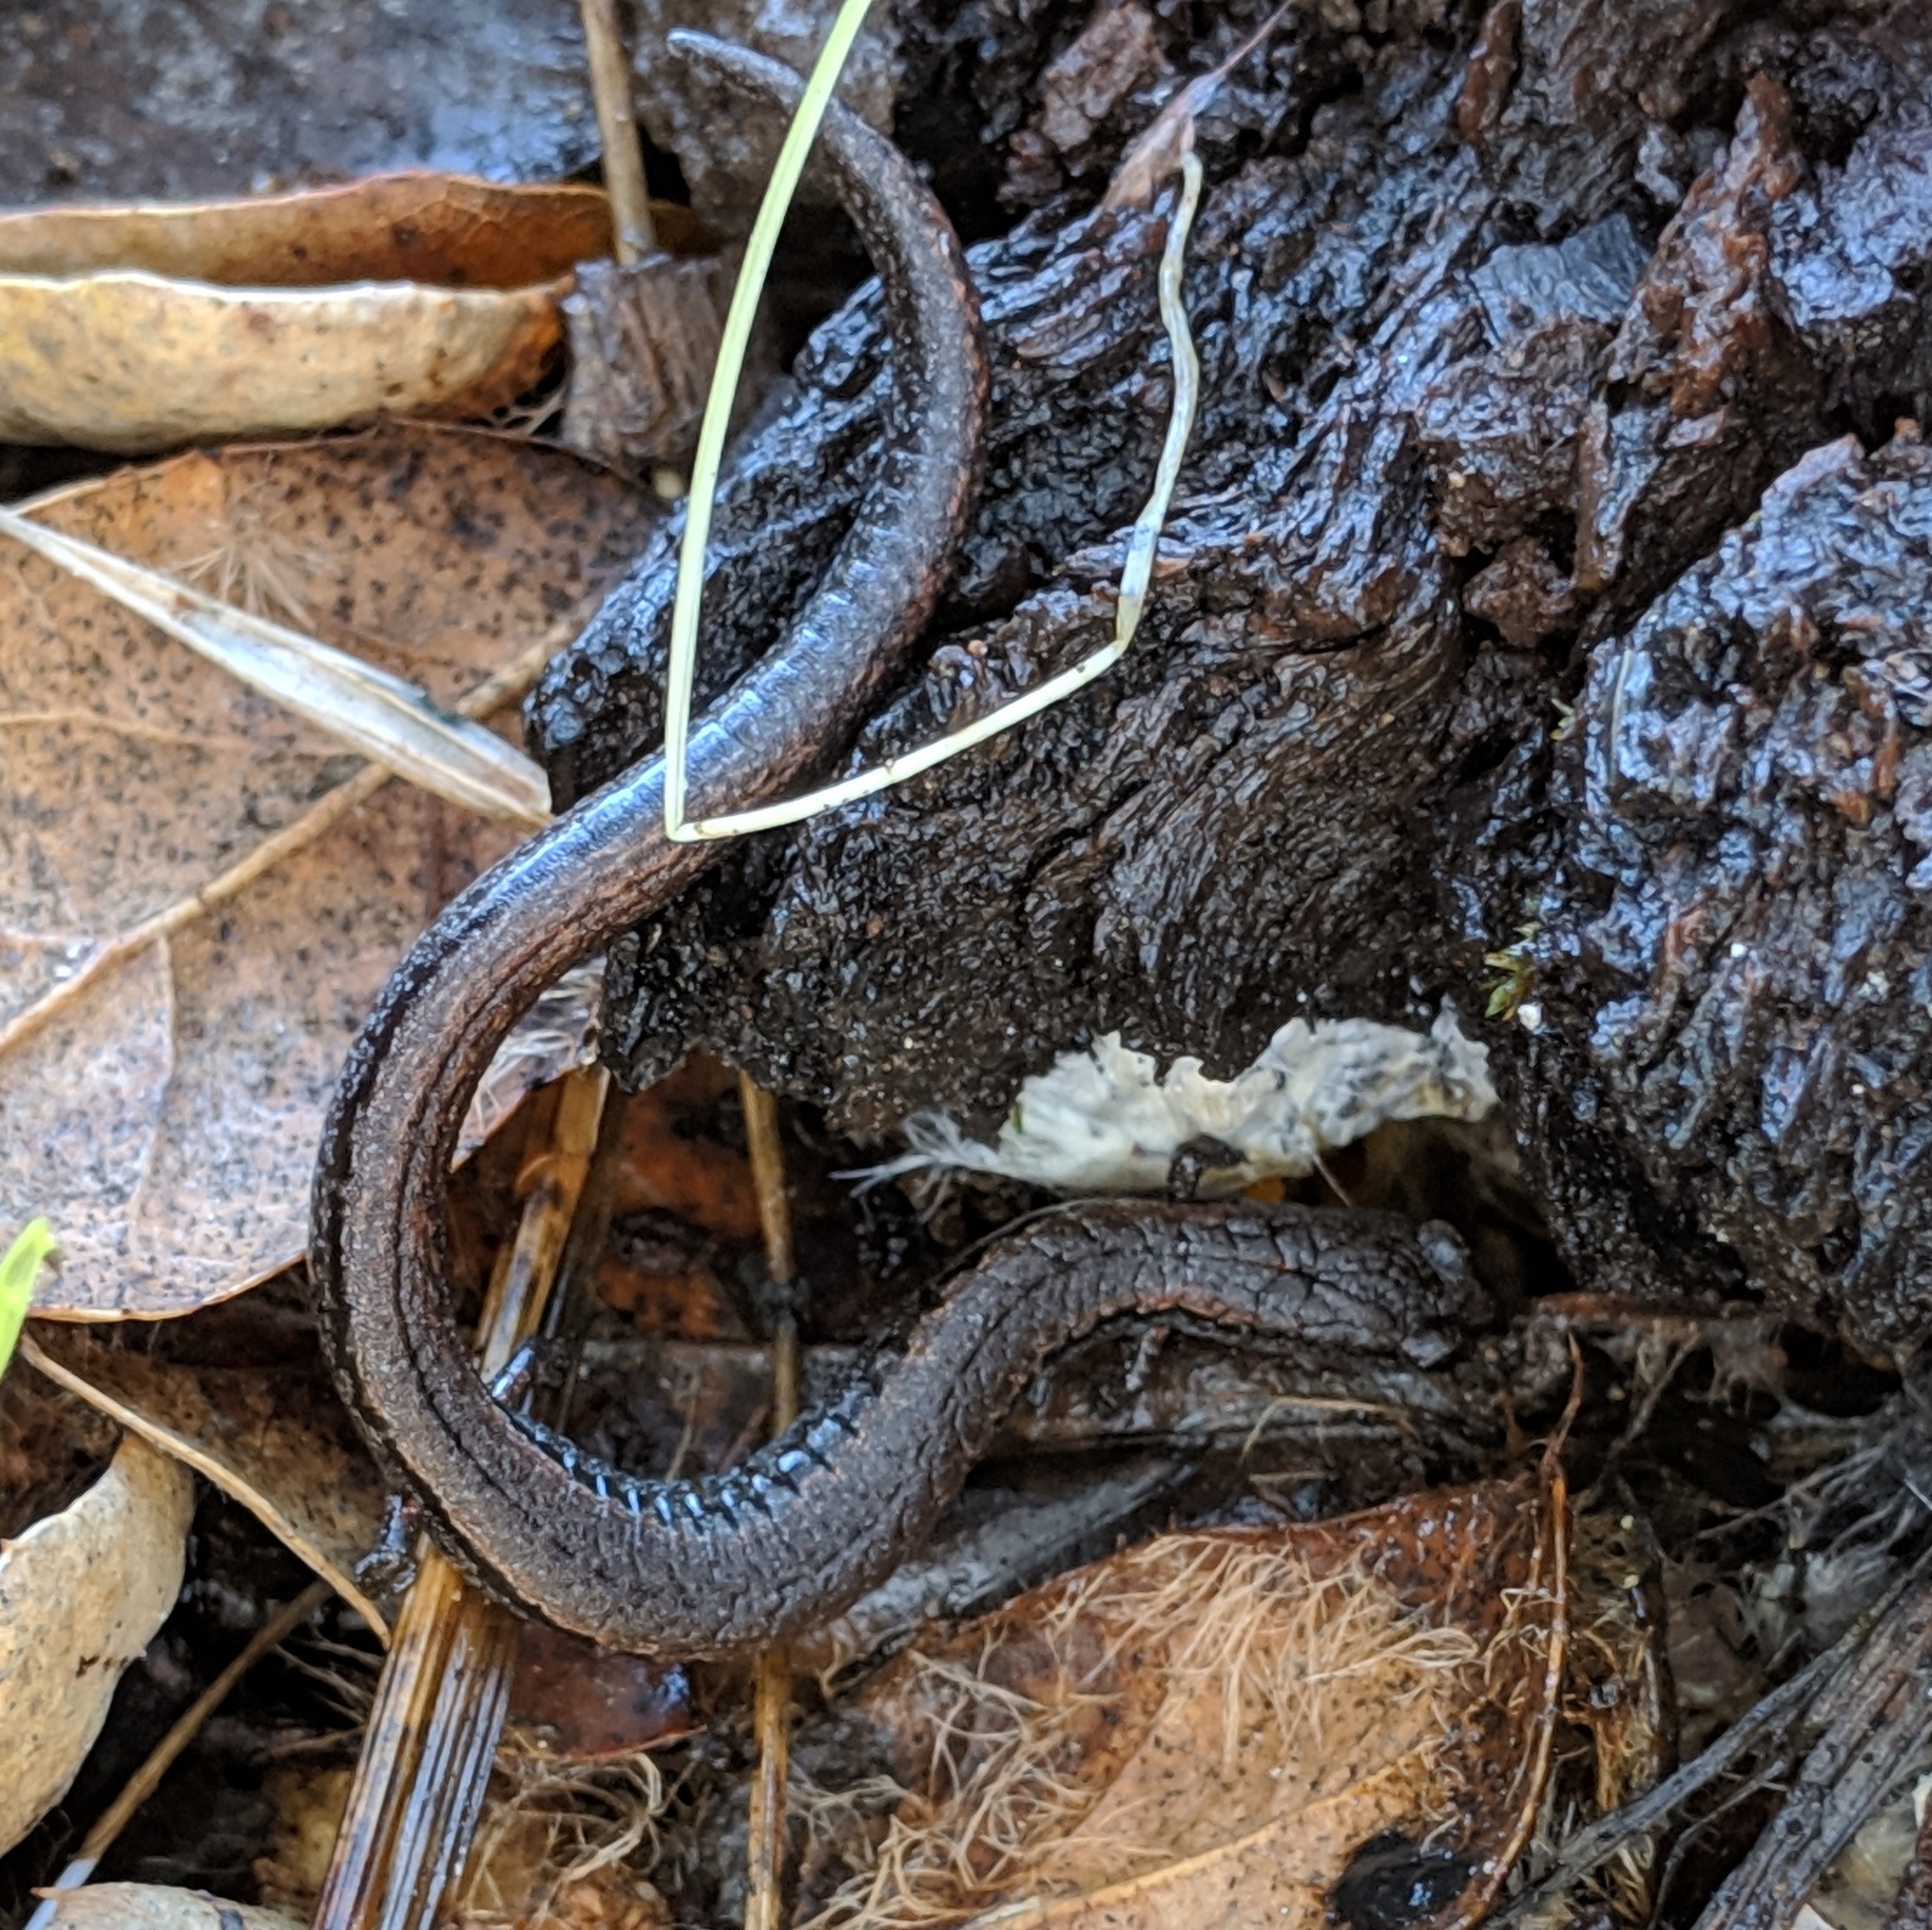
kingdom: Animalia
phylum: Chordata
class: Amphibia
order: Caudata
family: Plethodontidae
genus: Batrachoseps
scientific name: Batrachoseps attenuatus
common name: California slender salamander
